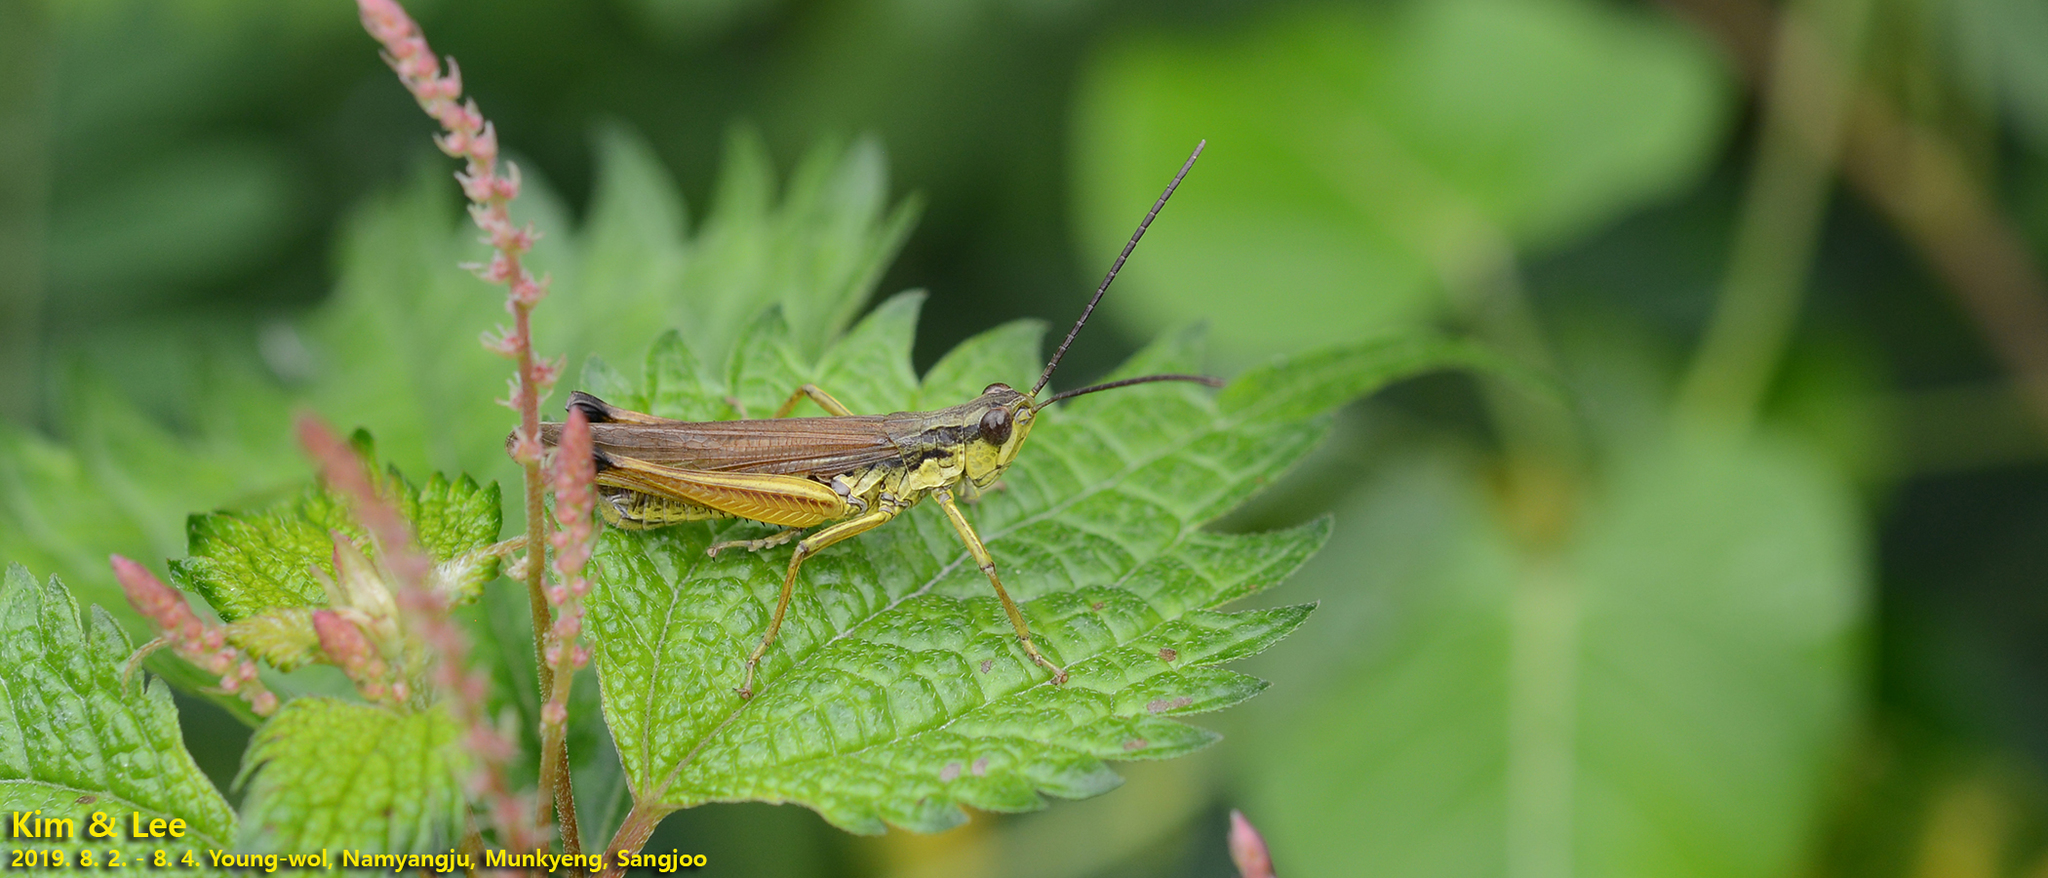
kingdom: Animalia
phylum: Arthropoda
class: Insecta
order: Orthoptera
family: Acrididae
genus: Schmidtiacris
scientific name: Schmidtiacris schmidti
